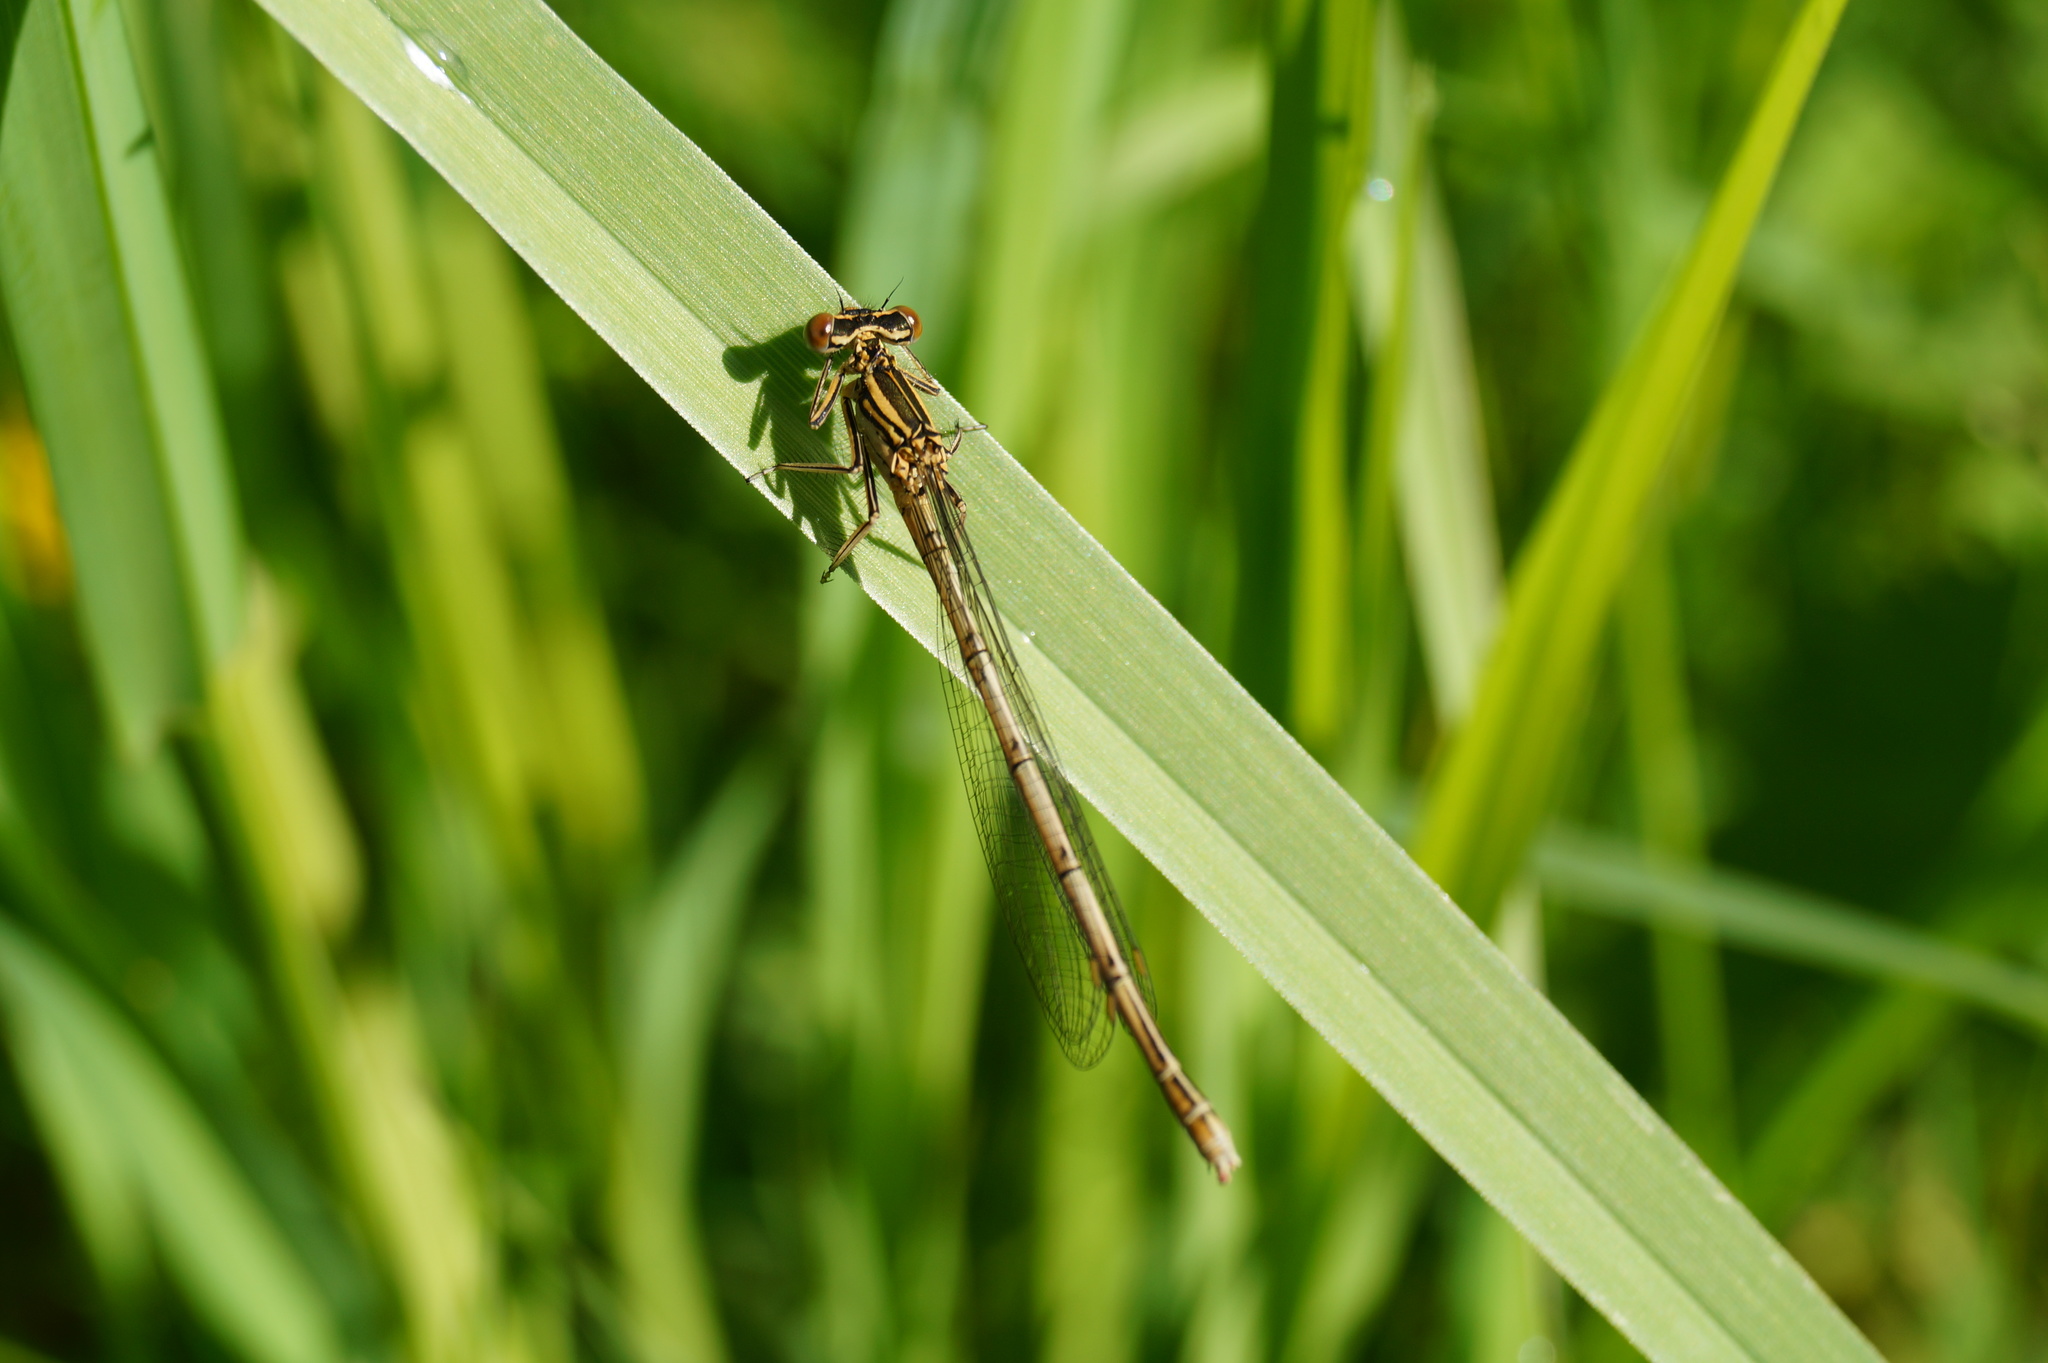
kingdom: Animalia
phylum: Arthropoda
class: Insecta
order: Odonata
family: Platycnemididae
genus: Platycnemis
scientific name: Platycnemis pennipes
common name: White-legged damselfly
